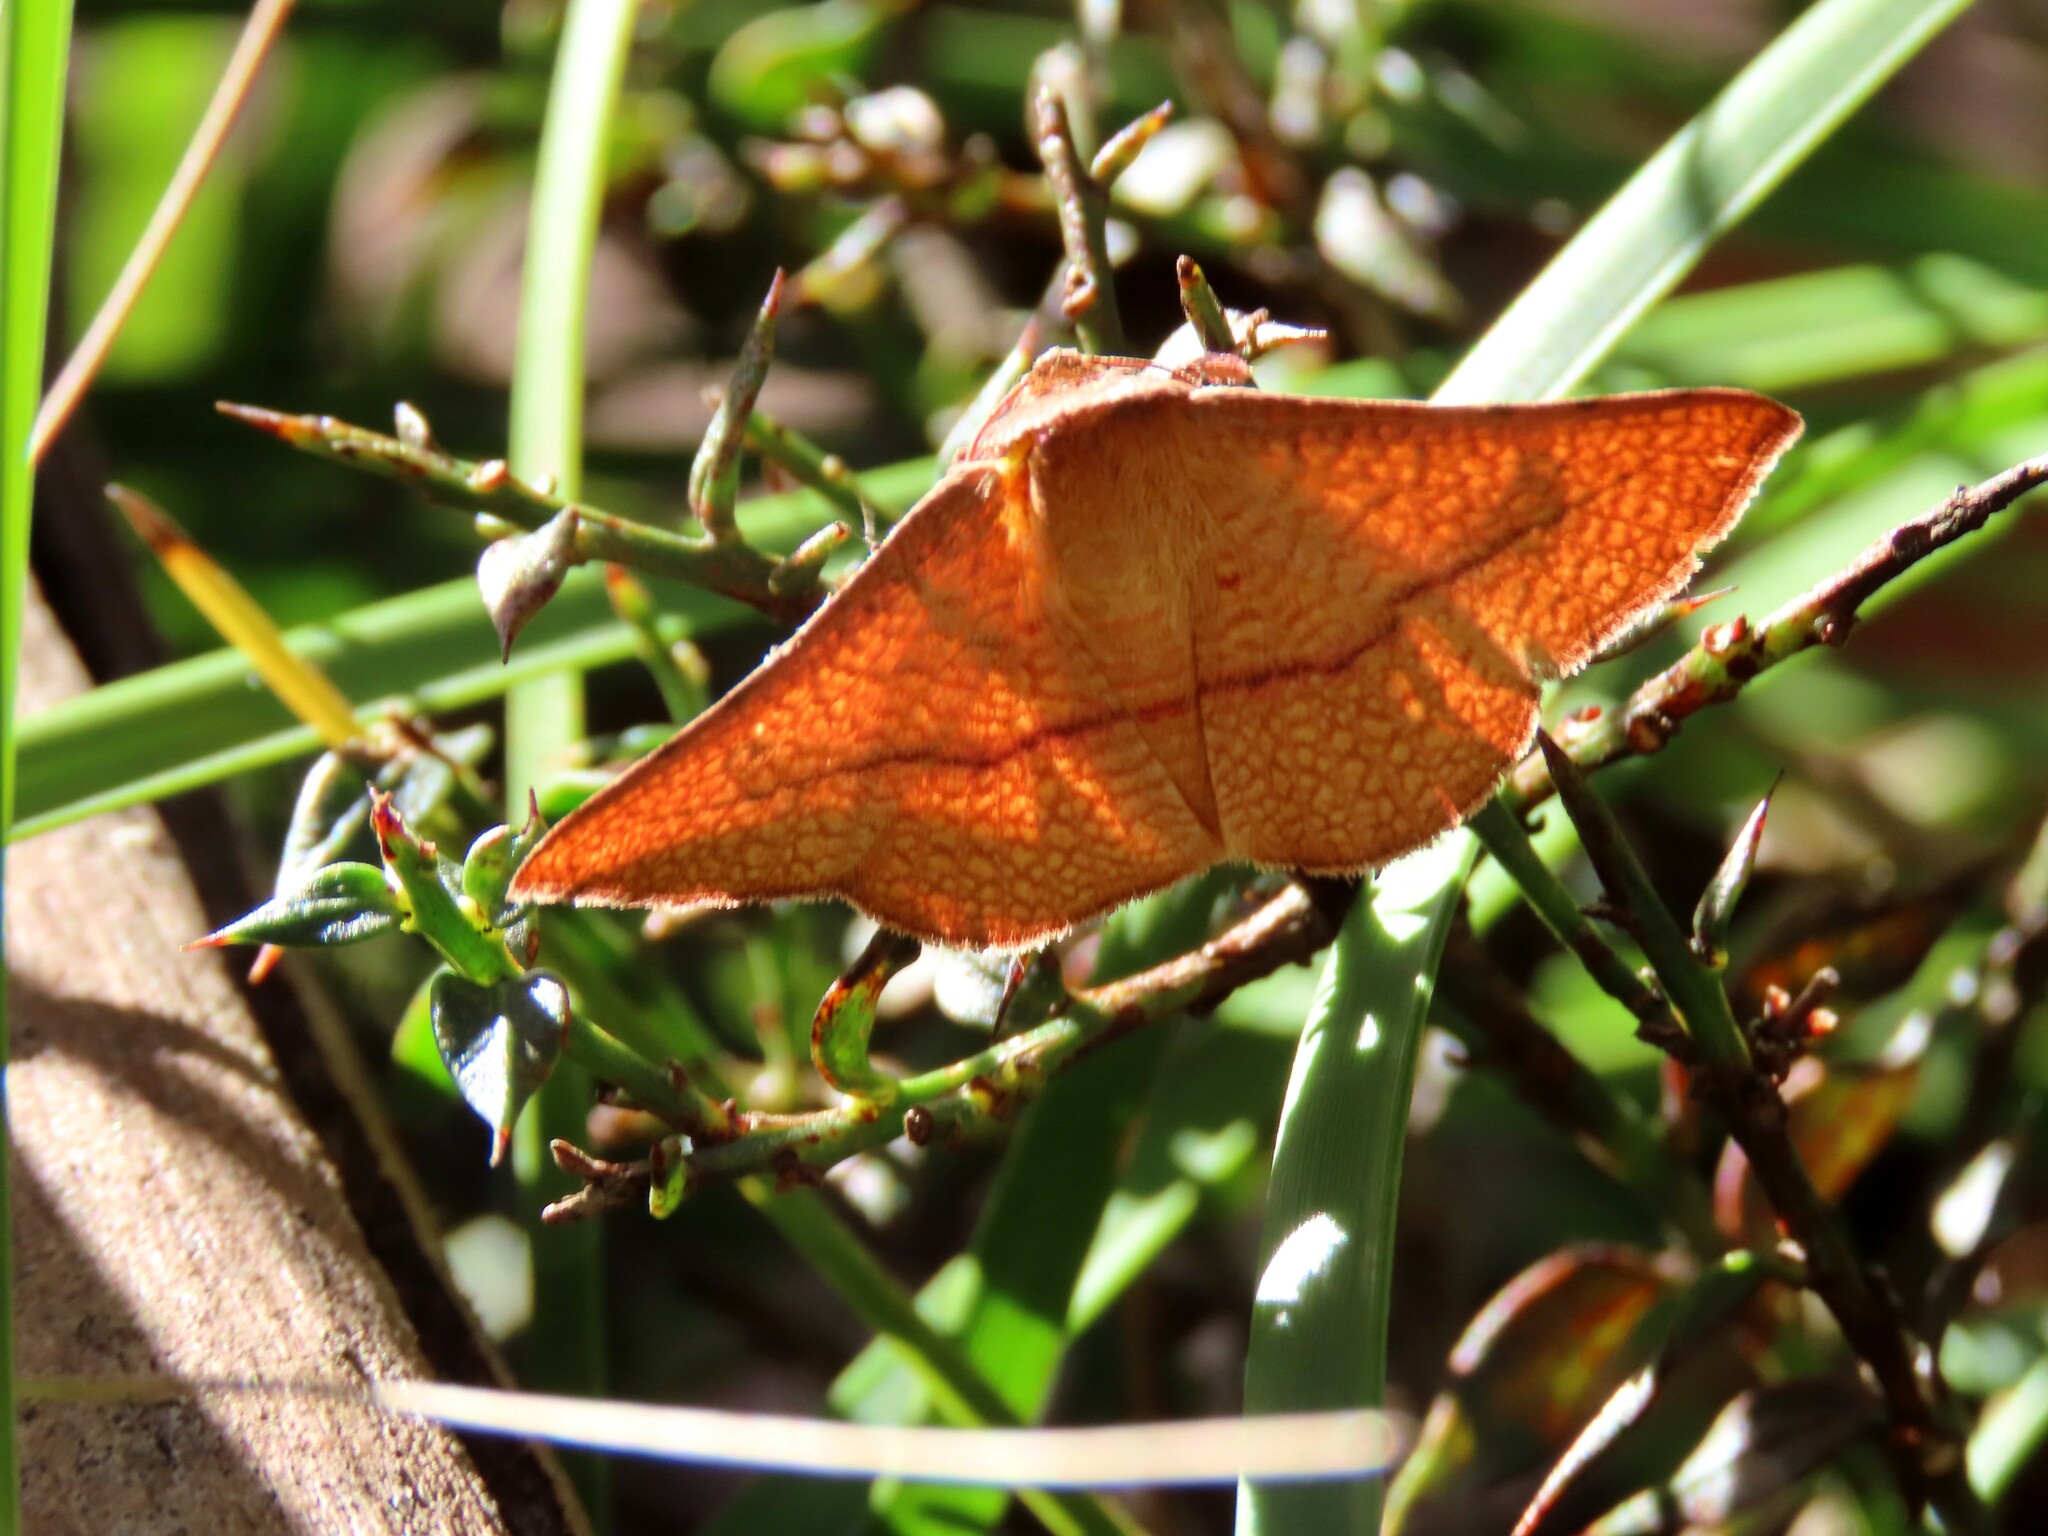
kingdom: Animalia
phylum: Arthropoda
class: Insecta
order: Lepidoptera
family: Thyrididae
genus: Aglaopus
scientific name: Aglaopus pyrrhata
